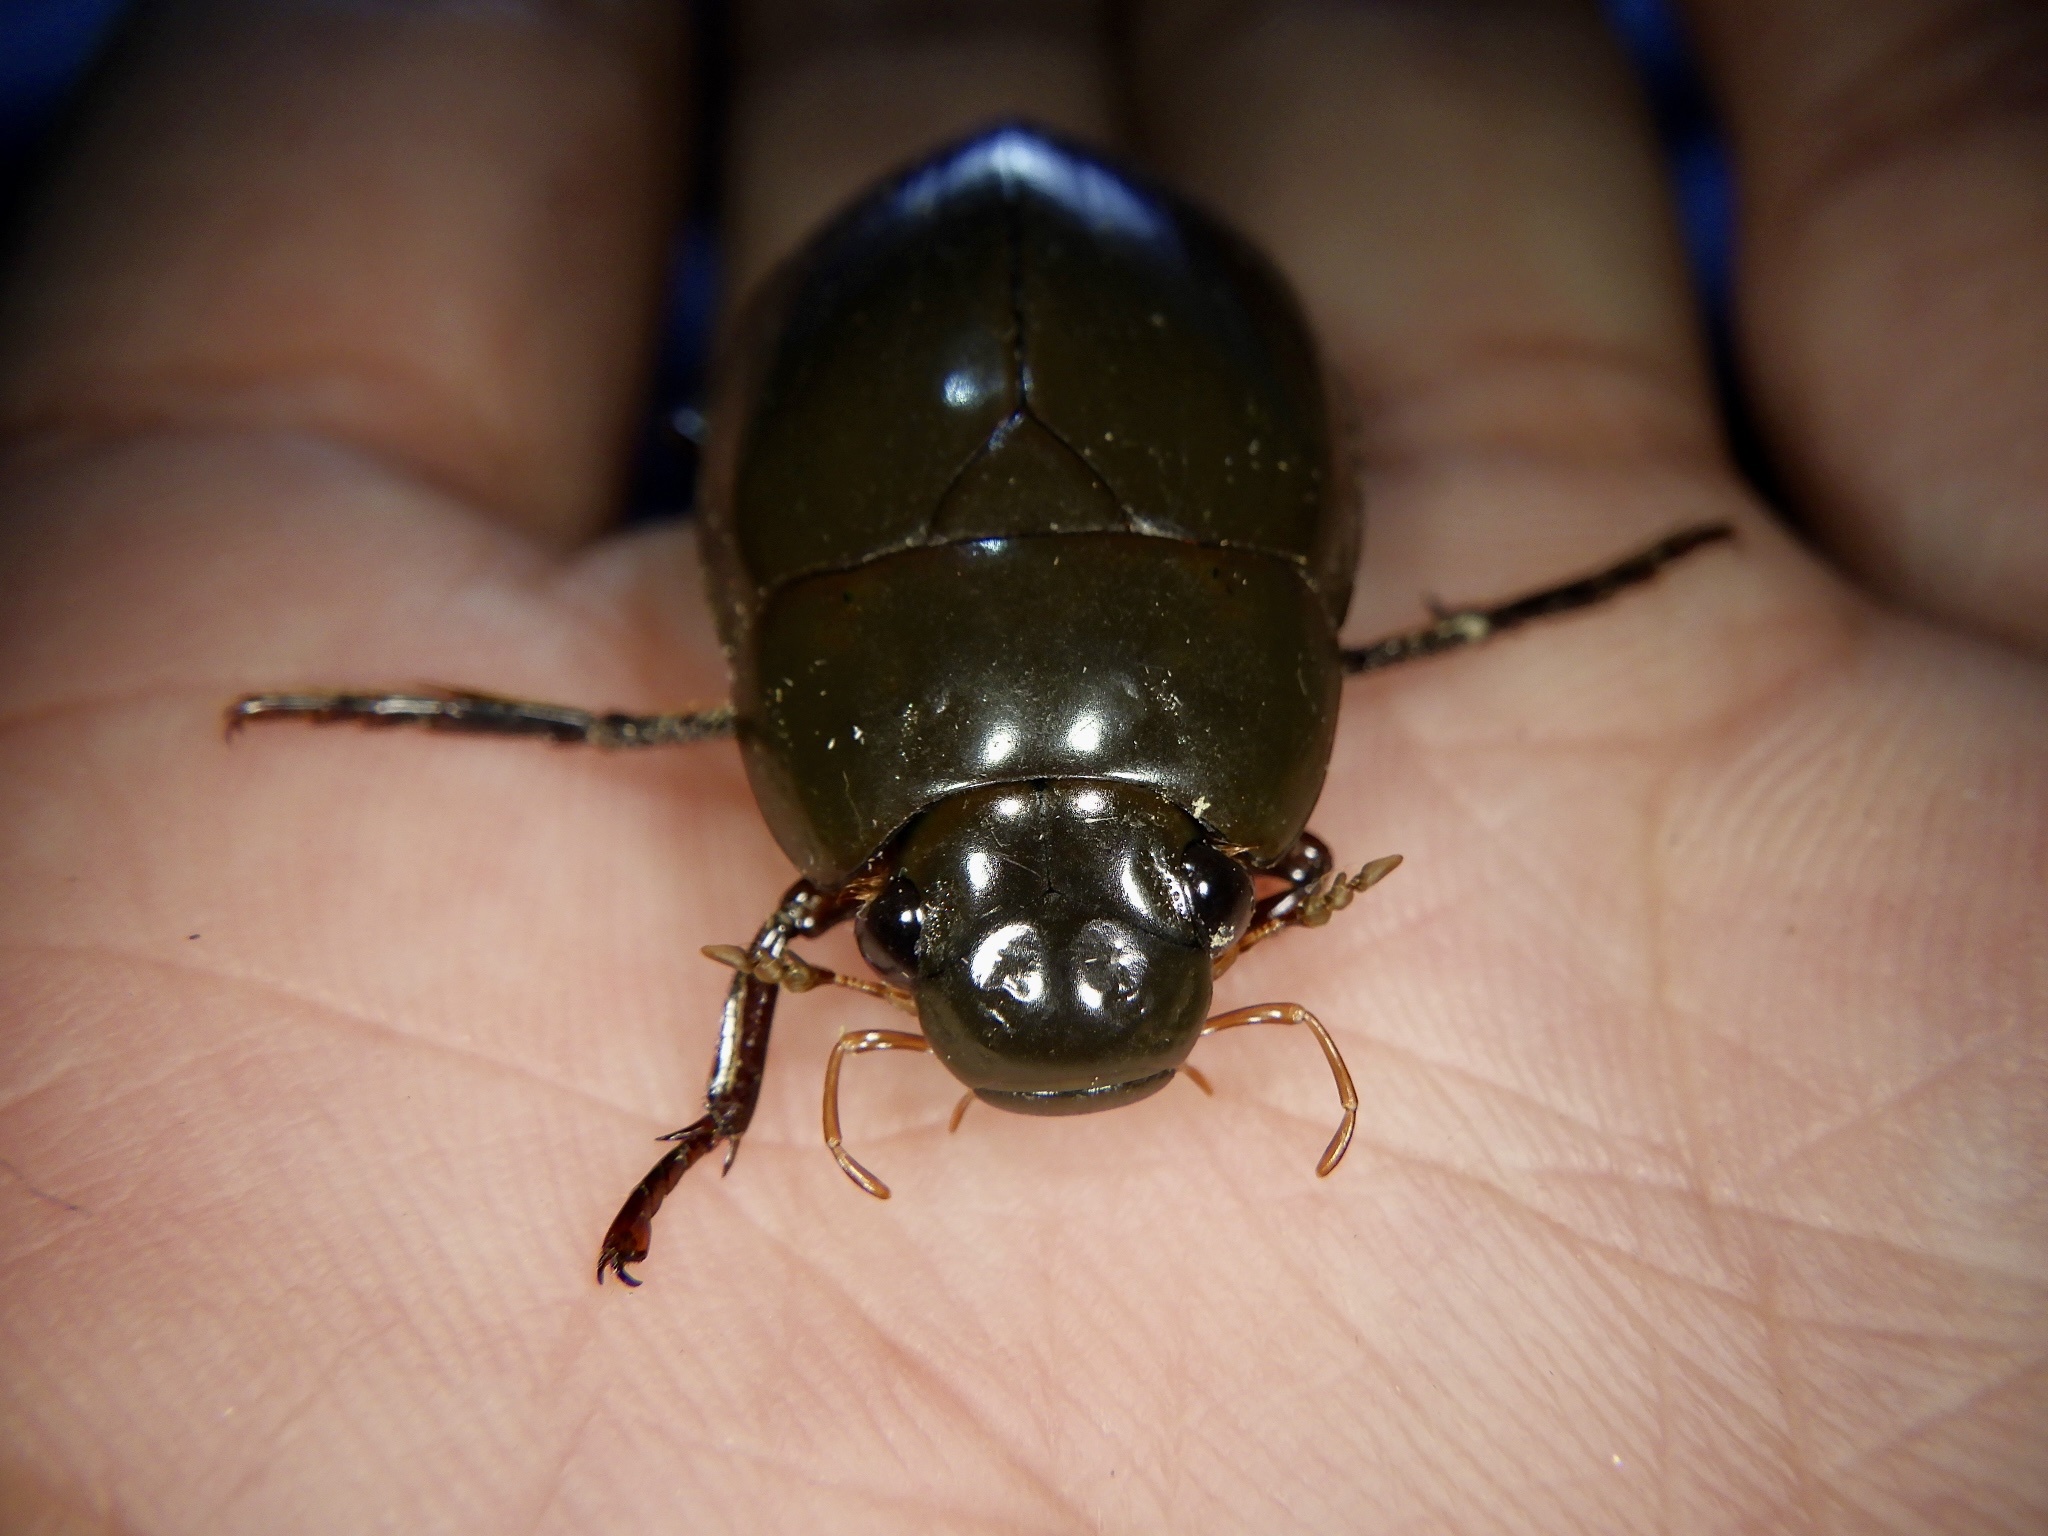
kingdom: Animalia
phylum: Arthropoda
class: Insecta
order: Coleoptera
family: Hydrophilidae
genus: Hydrophilus
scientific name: Hydrophilus bilineatus
